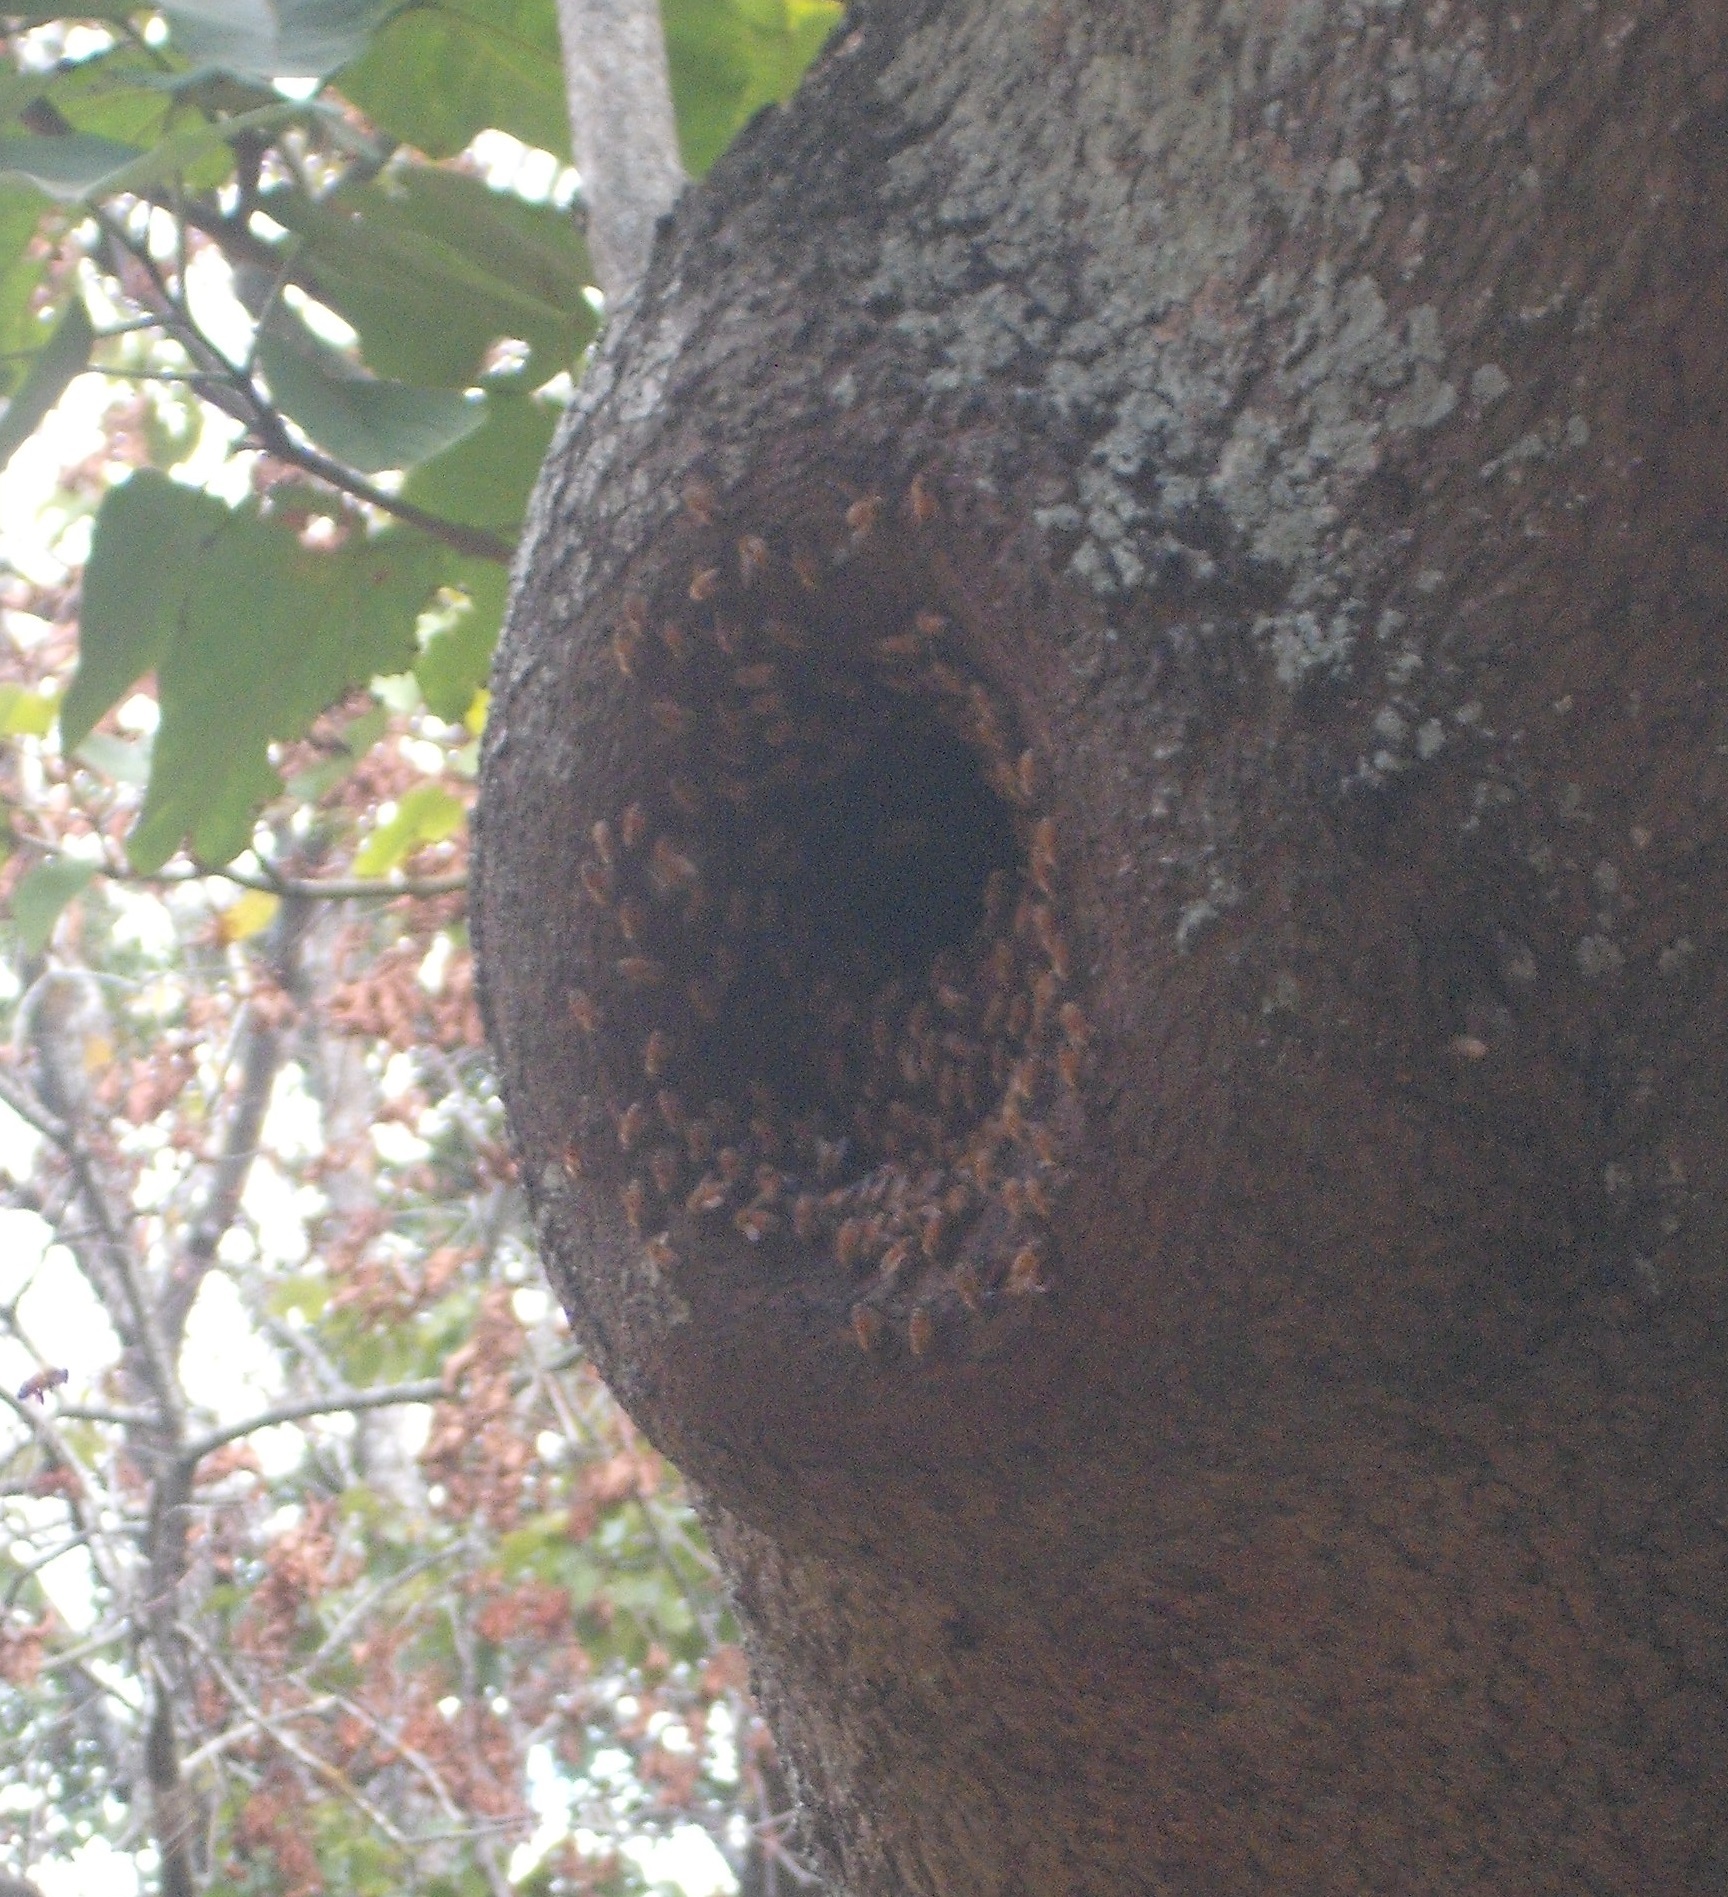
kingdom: Animalia
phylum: Arthropoda
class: Insecta
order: Hymenoptera
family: Apidae
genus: Apis
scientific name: Apis mellifera
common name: Honey bee
